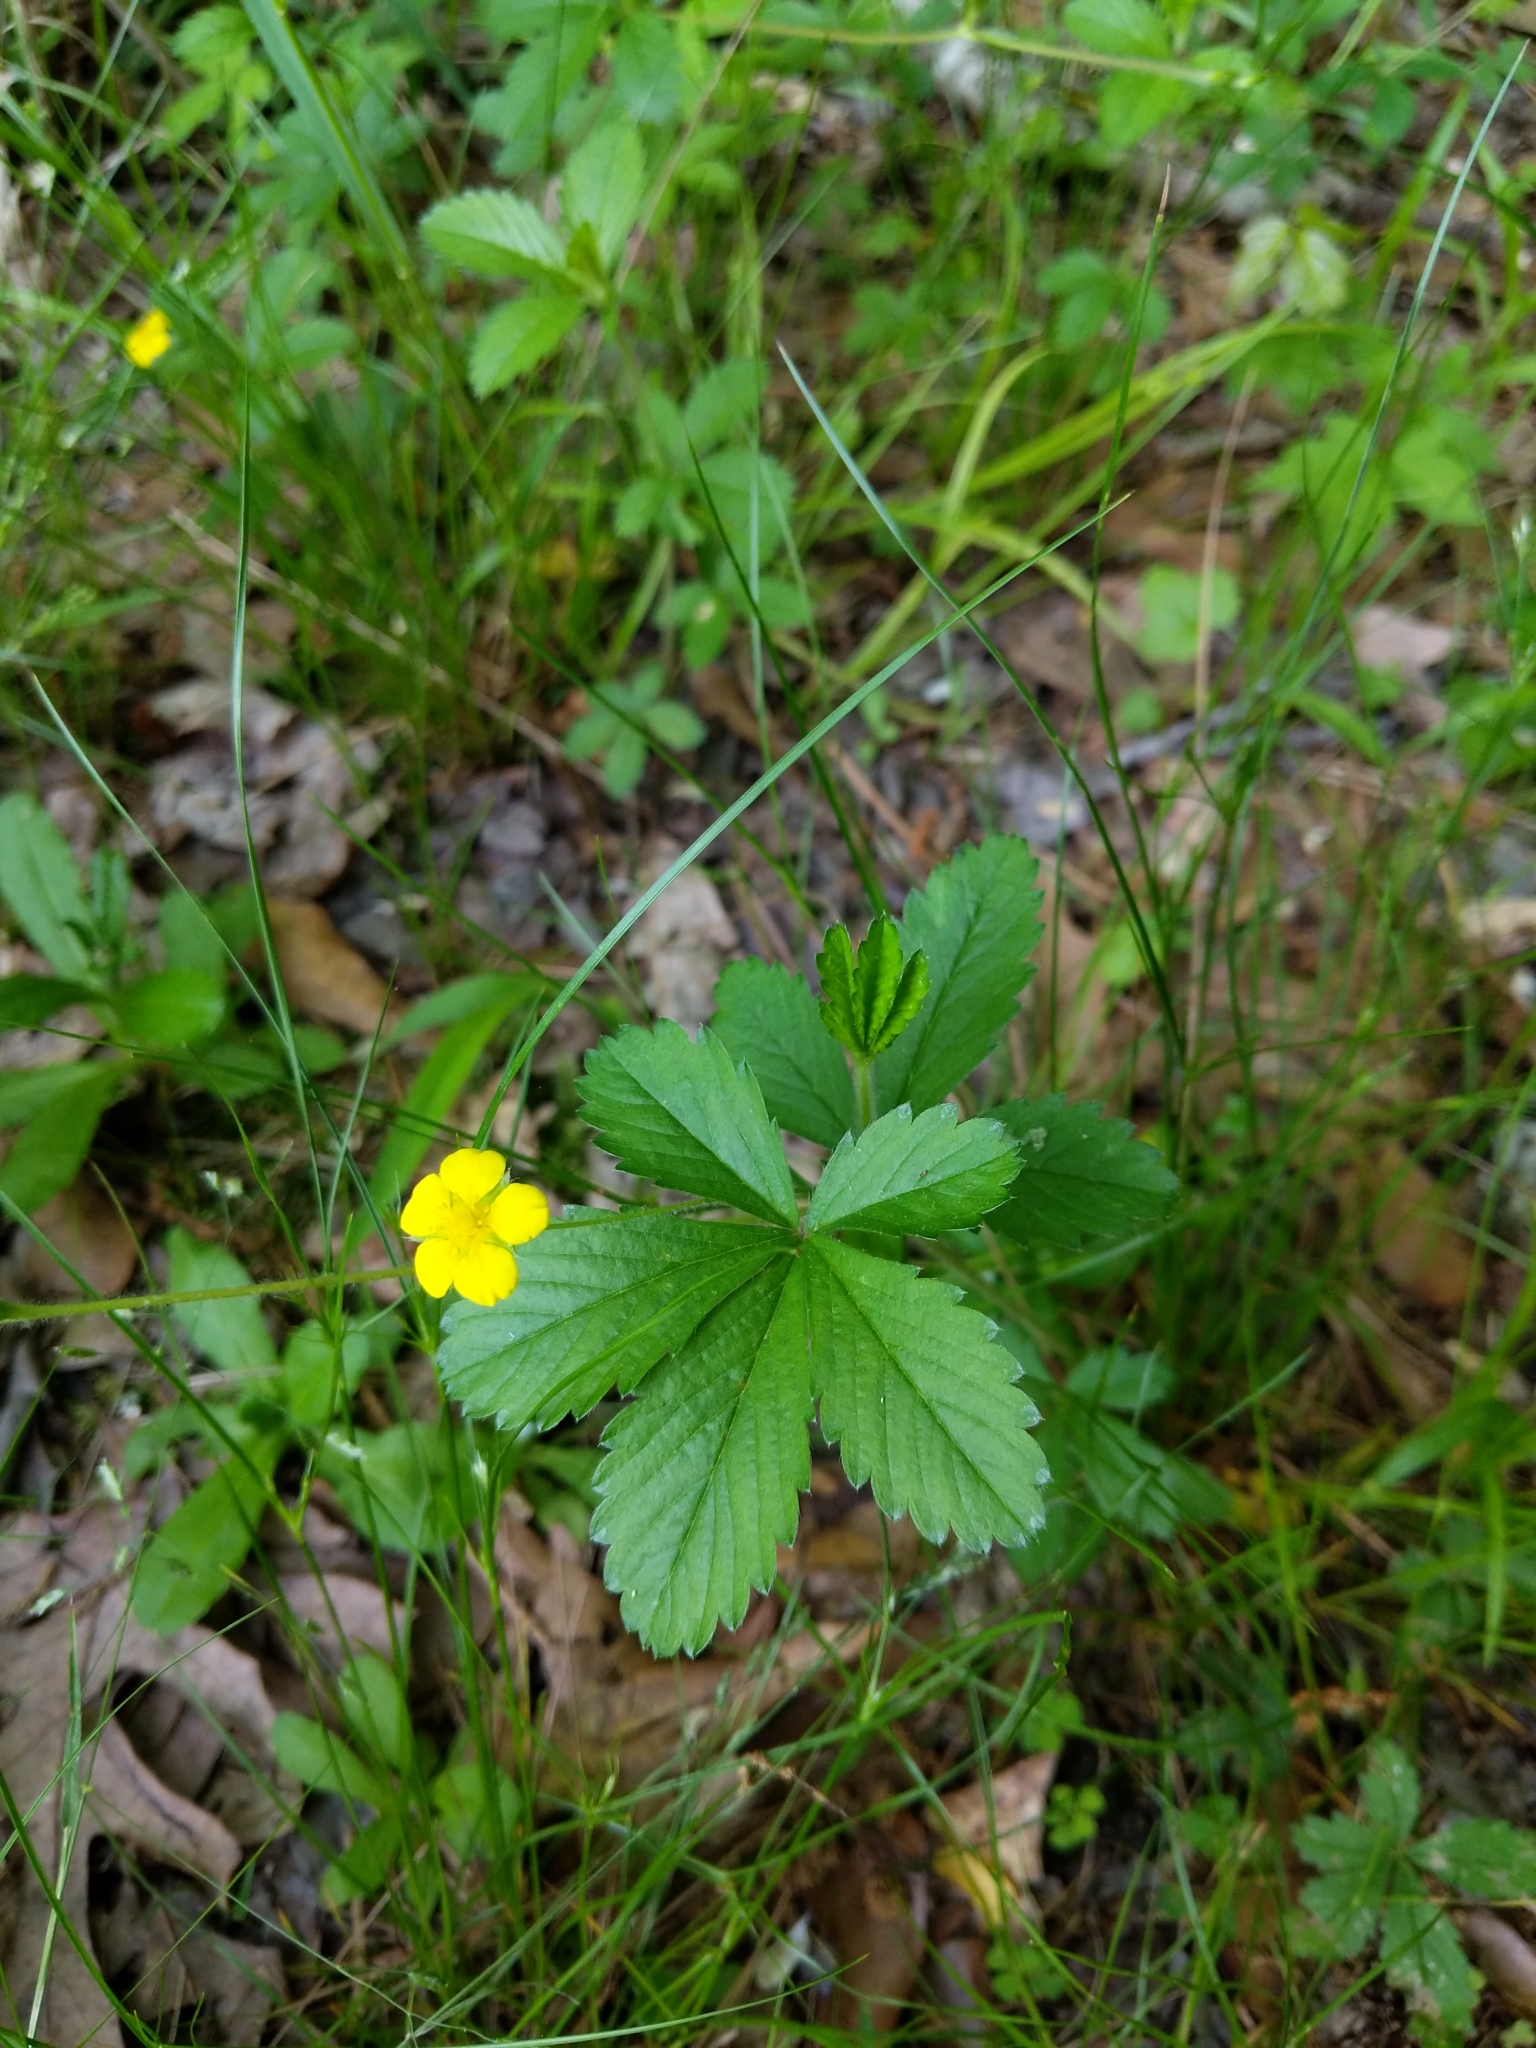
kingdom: Plantae
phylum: Tracheophyta
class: Magnoliopsida
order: Rosales
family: Rosaceae
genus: Potentilla
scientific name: Potentilla simplex
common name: Old field cinquefoil
